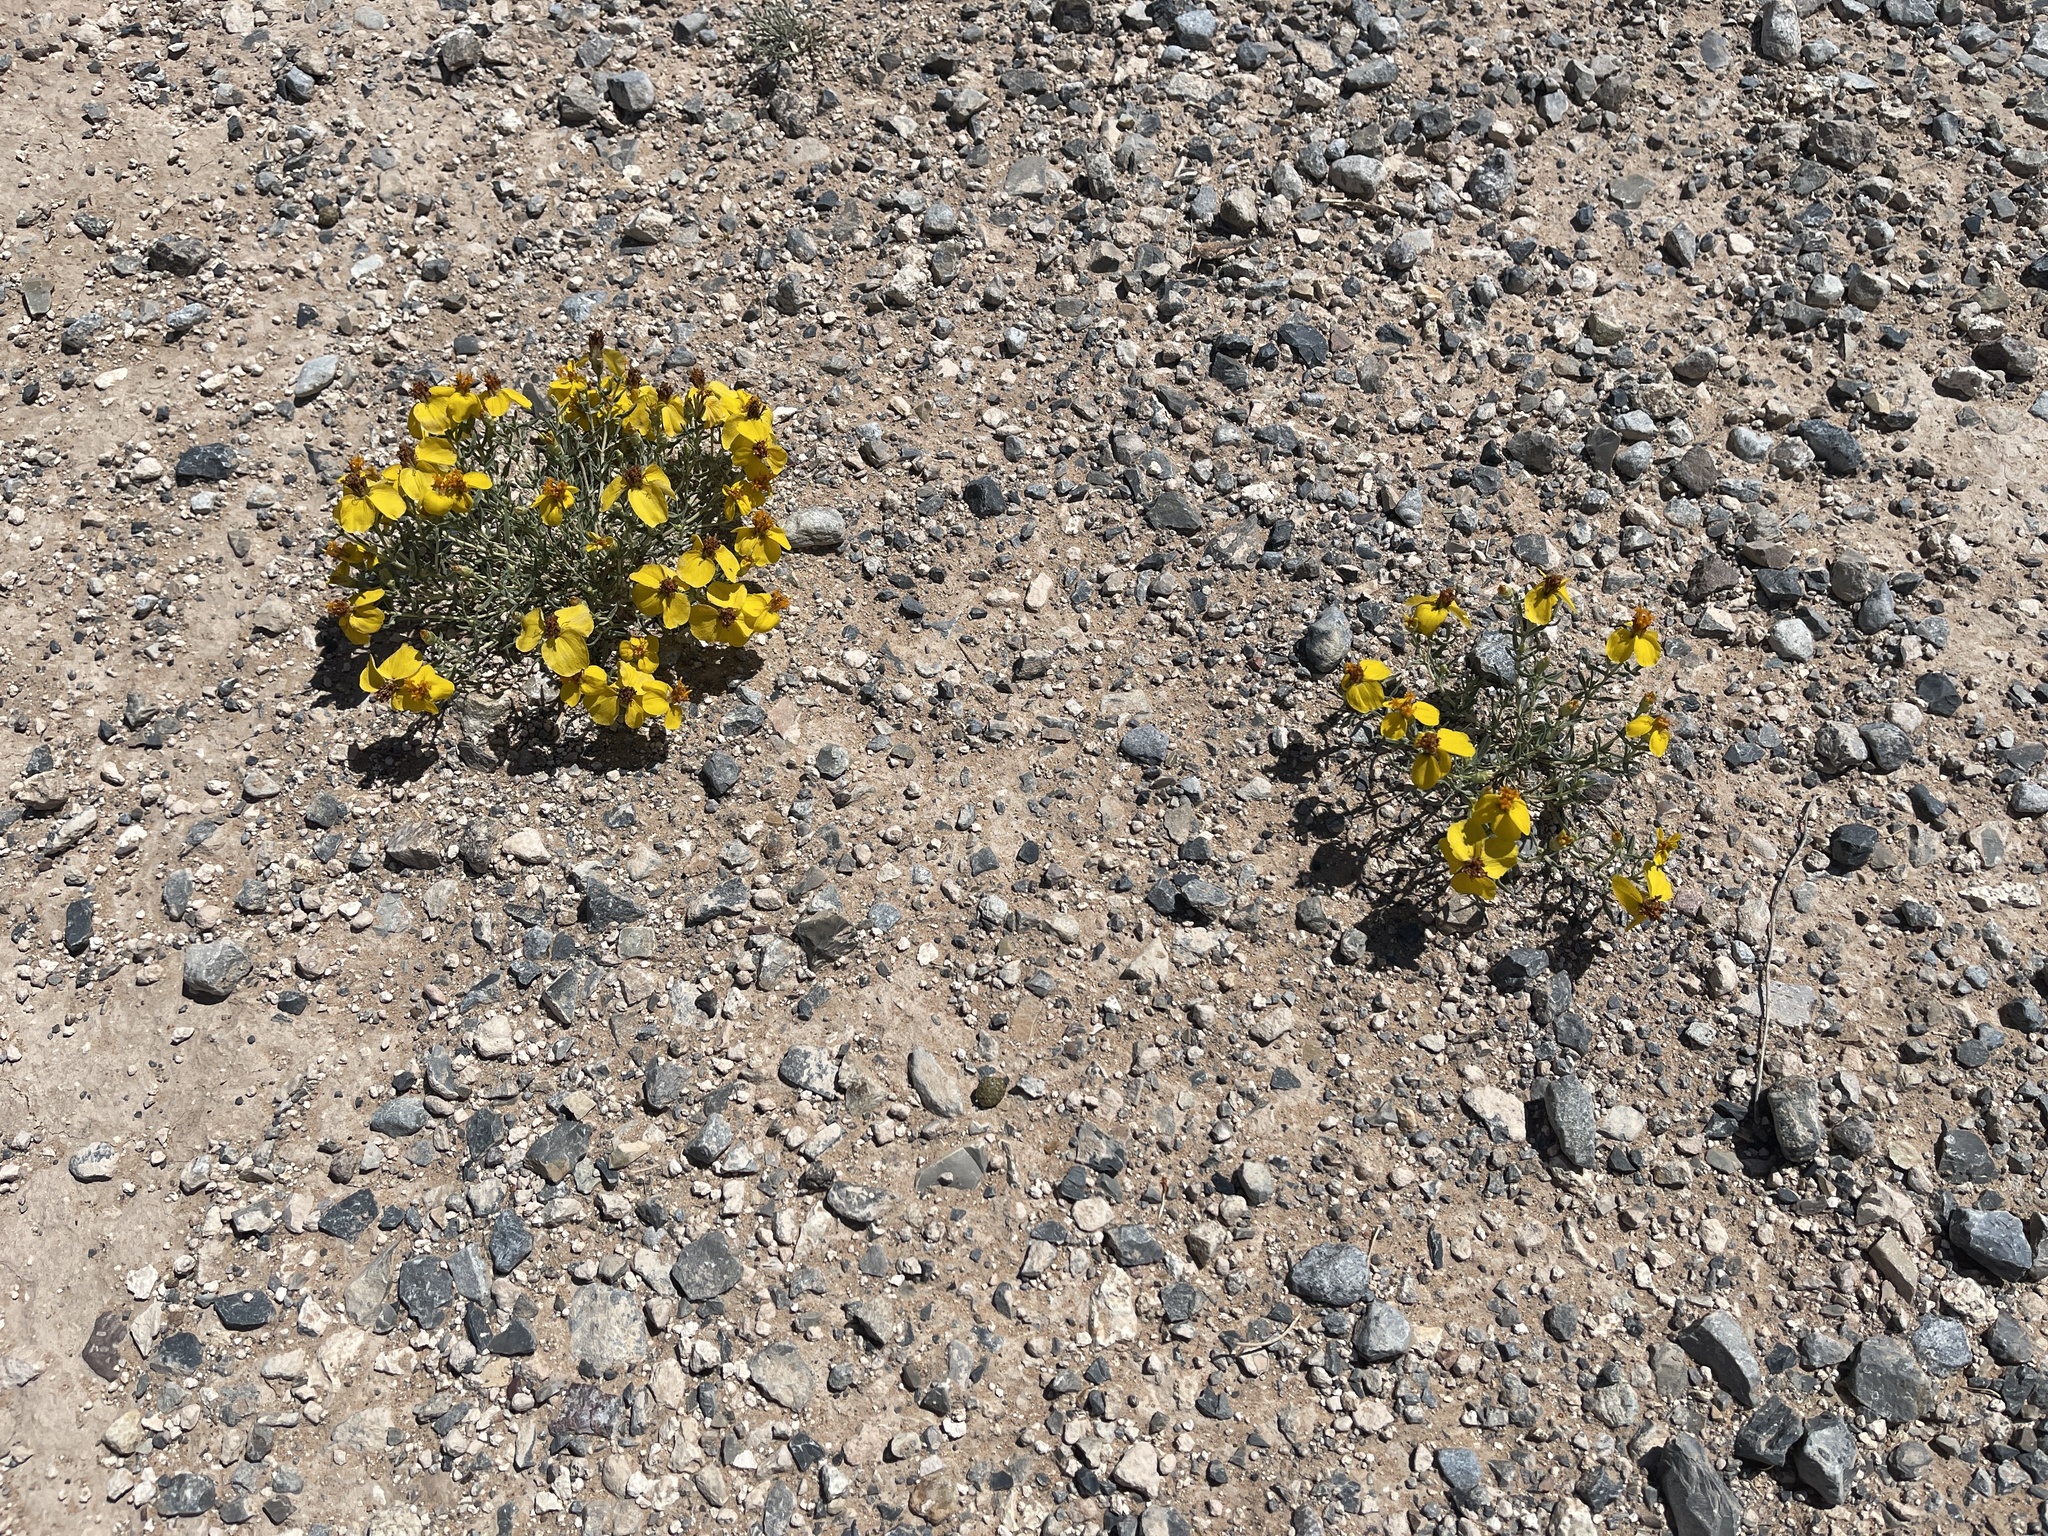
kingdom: Plantae
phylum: Tracheophyta
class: Magnoliopsida
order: Asterales
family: Asteraceae
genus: Zinnia
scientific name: Zinnia grandiflora
